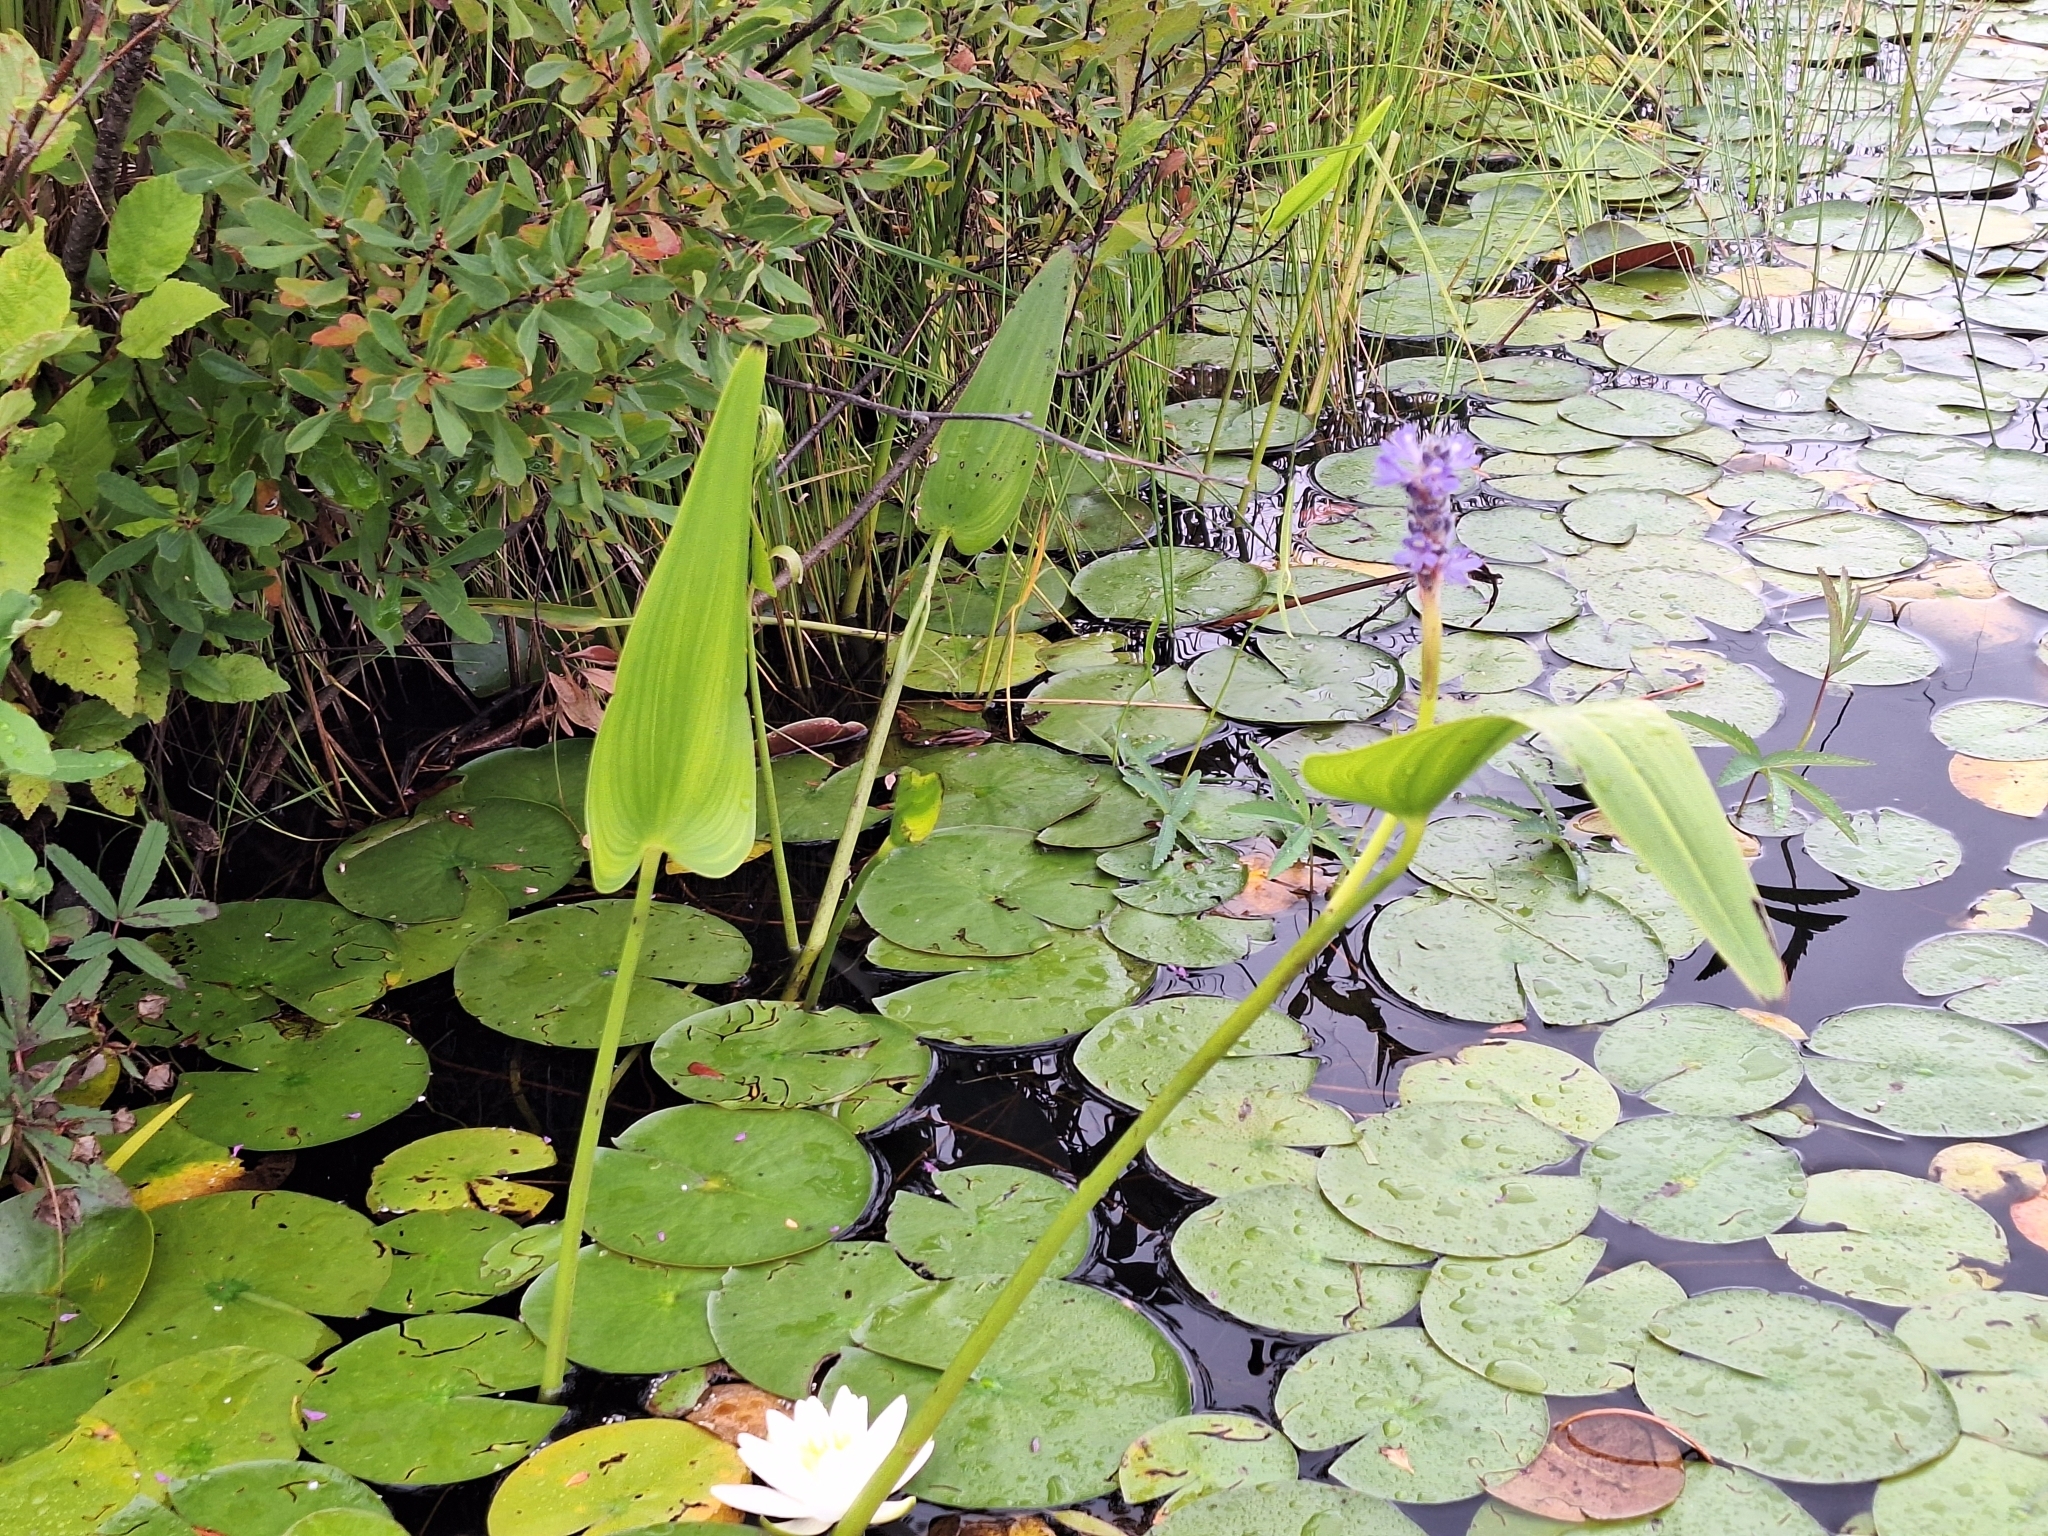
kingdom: Plantae
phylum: Tracheophyta
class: Liliopsida
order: Commelinales
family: Pontederiaceae
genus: Pontederia
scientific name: Pontederia cordata
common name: Pickerelweed
